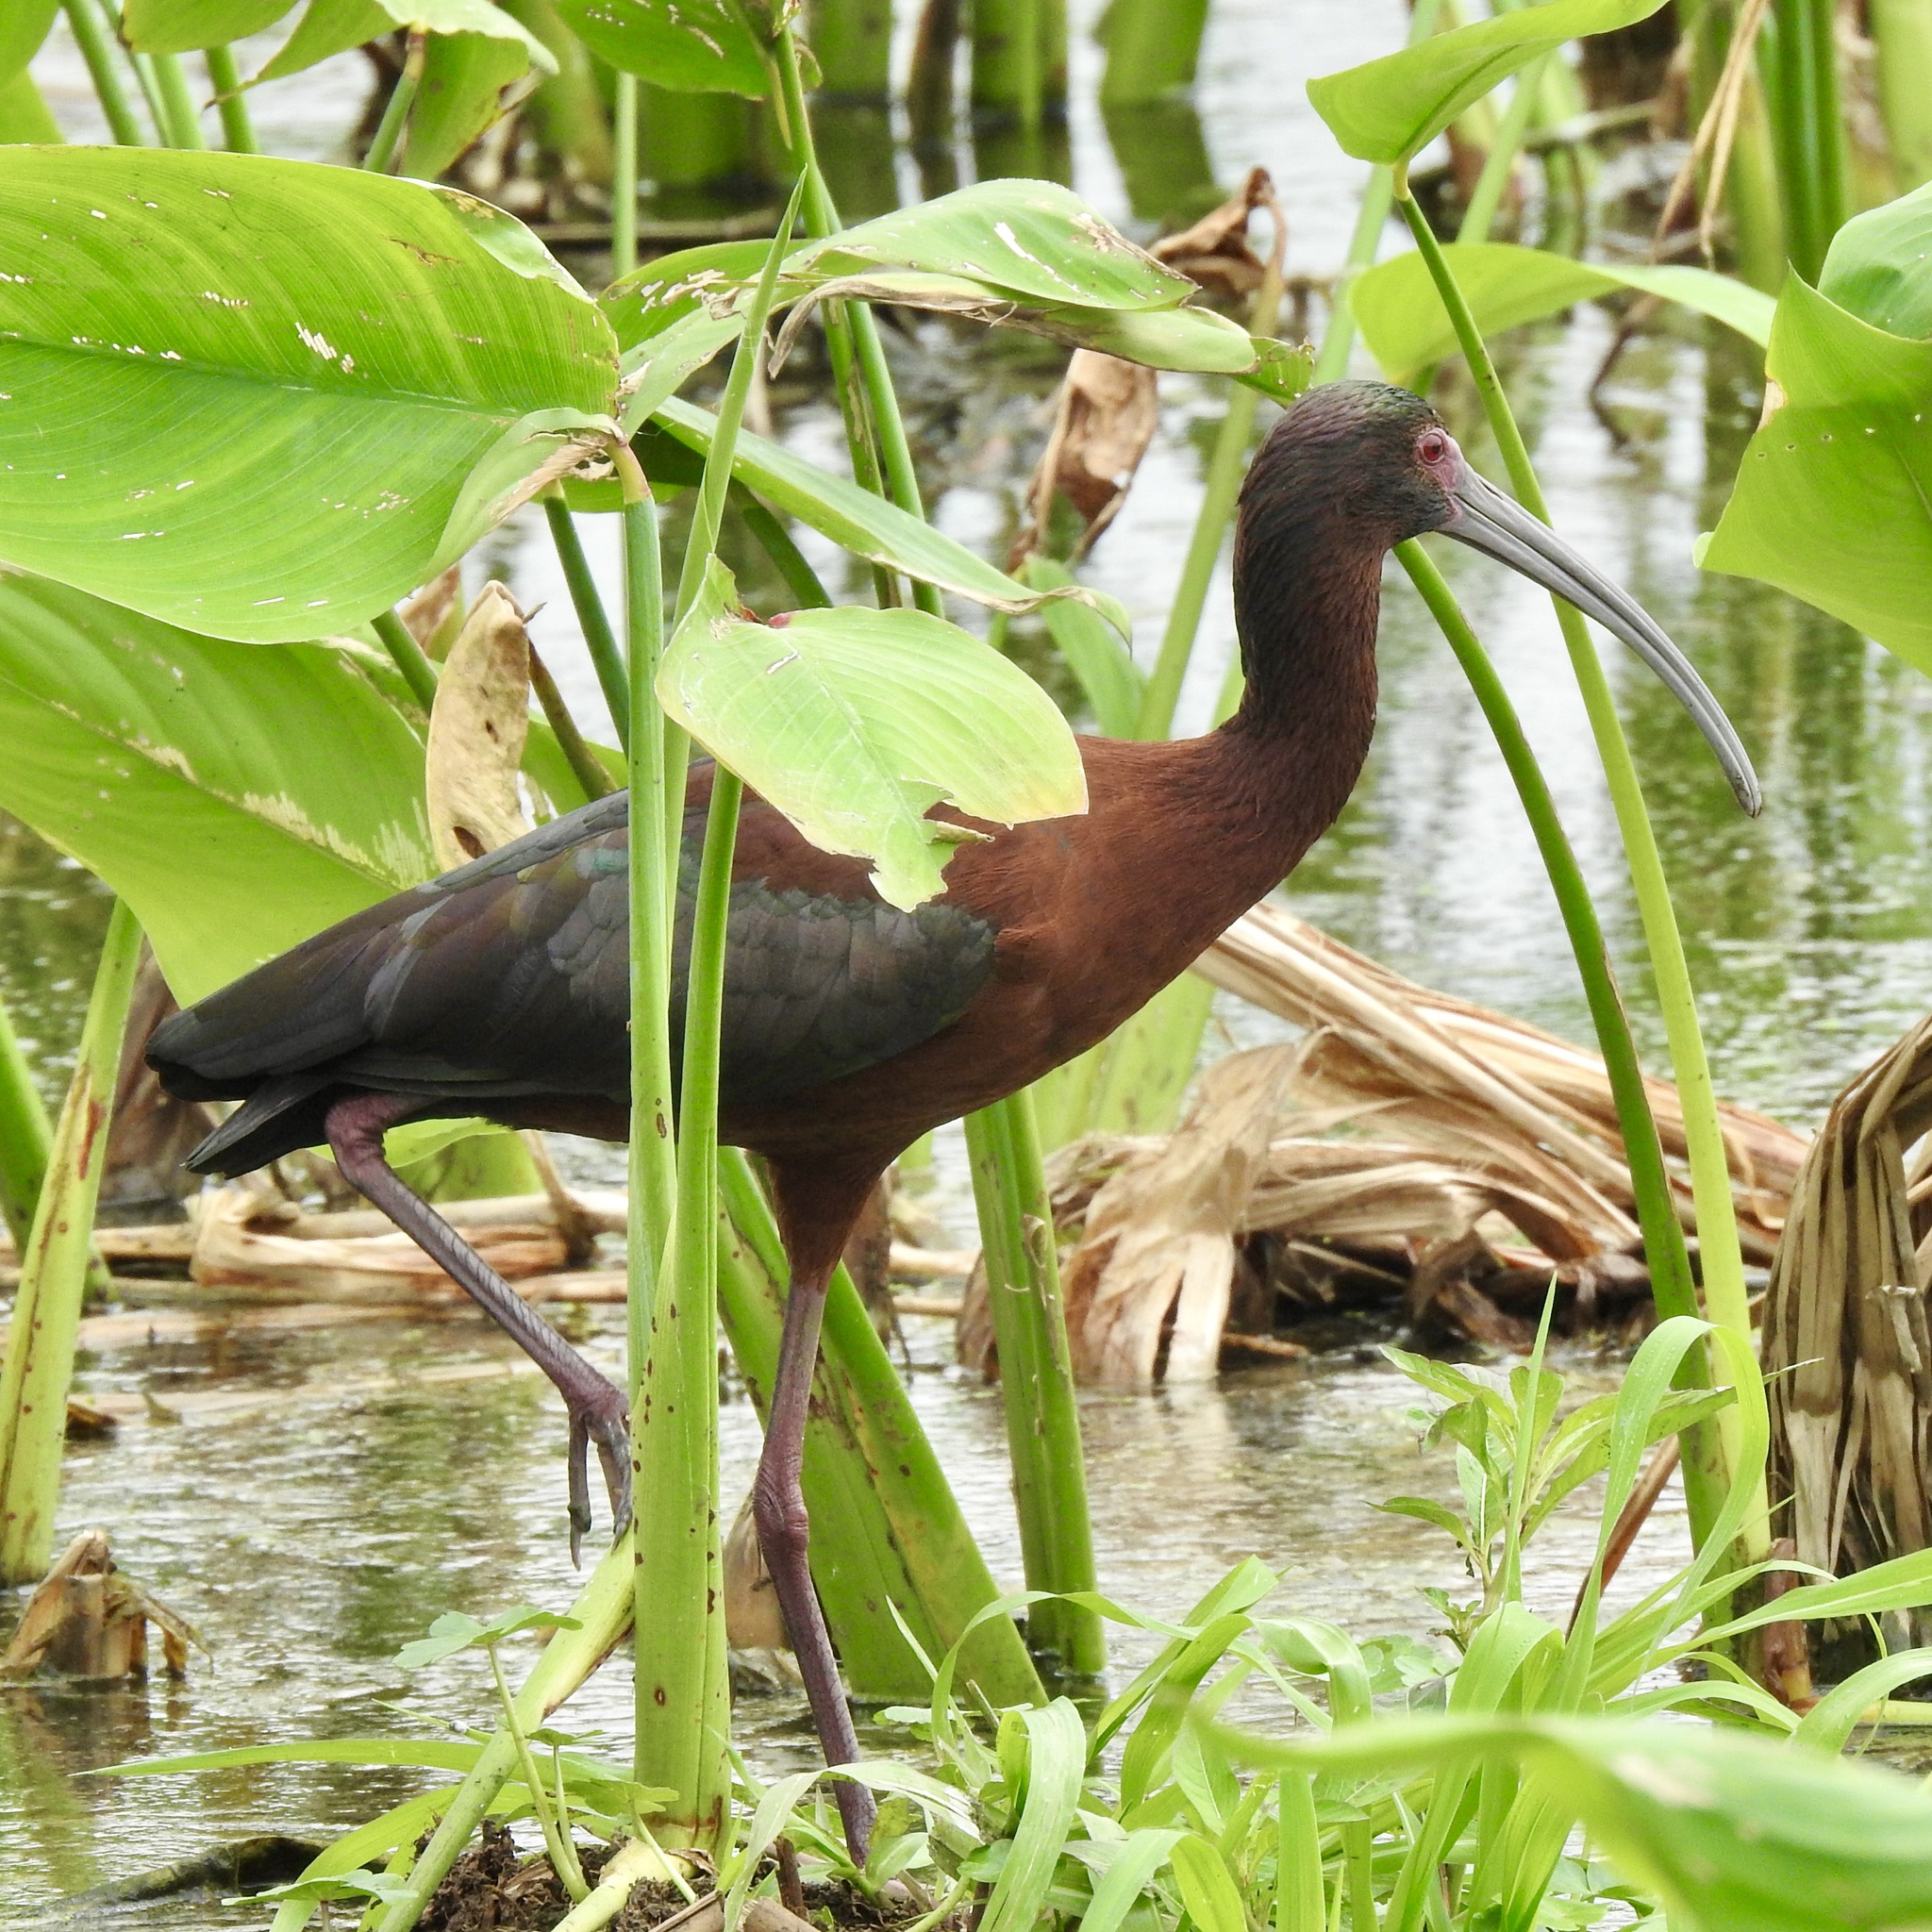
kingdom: Animalia
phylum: Chordata
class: Aves
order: Pelecaniformes
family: Threskiornithidae
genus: Plegadis
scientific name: Plegadis chihi
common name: White-faced ibis
